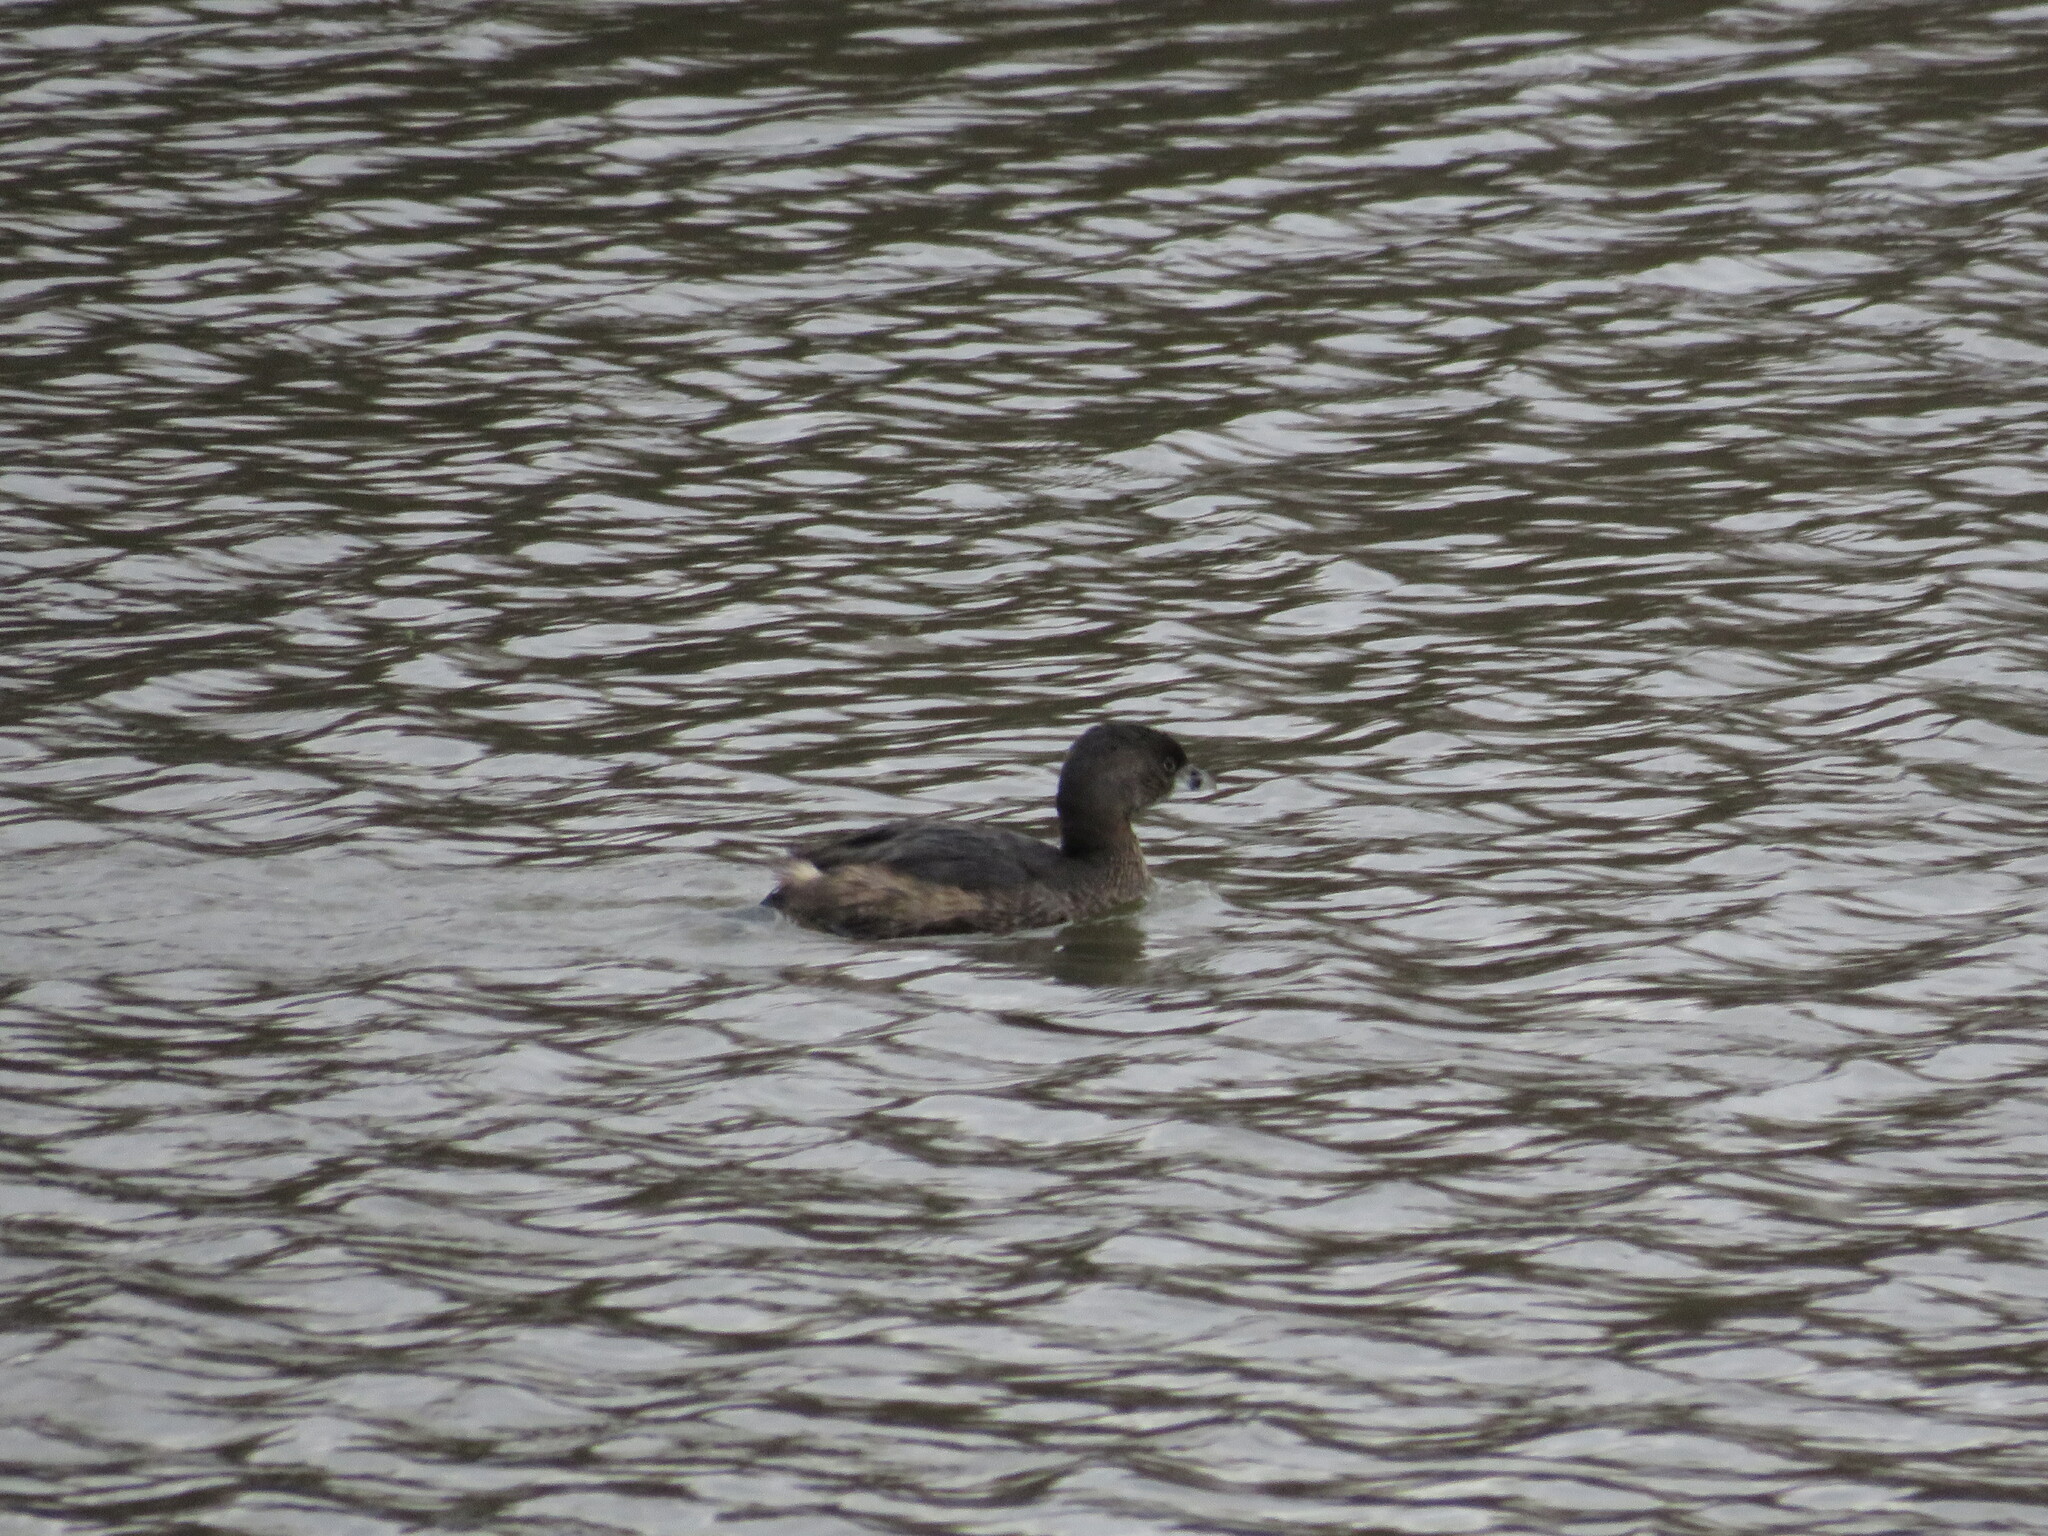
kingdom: Animalia
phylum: Chordata
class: Aves
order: Podicipediformes
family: Podicipedidae
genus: Podilymbus
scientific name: Podilymbus podiceps
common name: Pied-billed grebe
